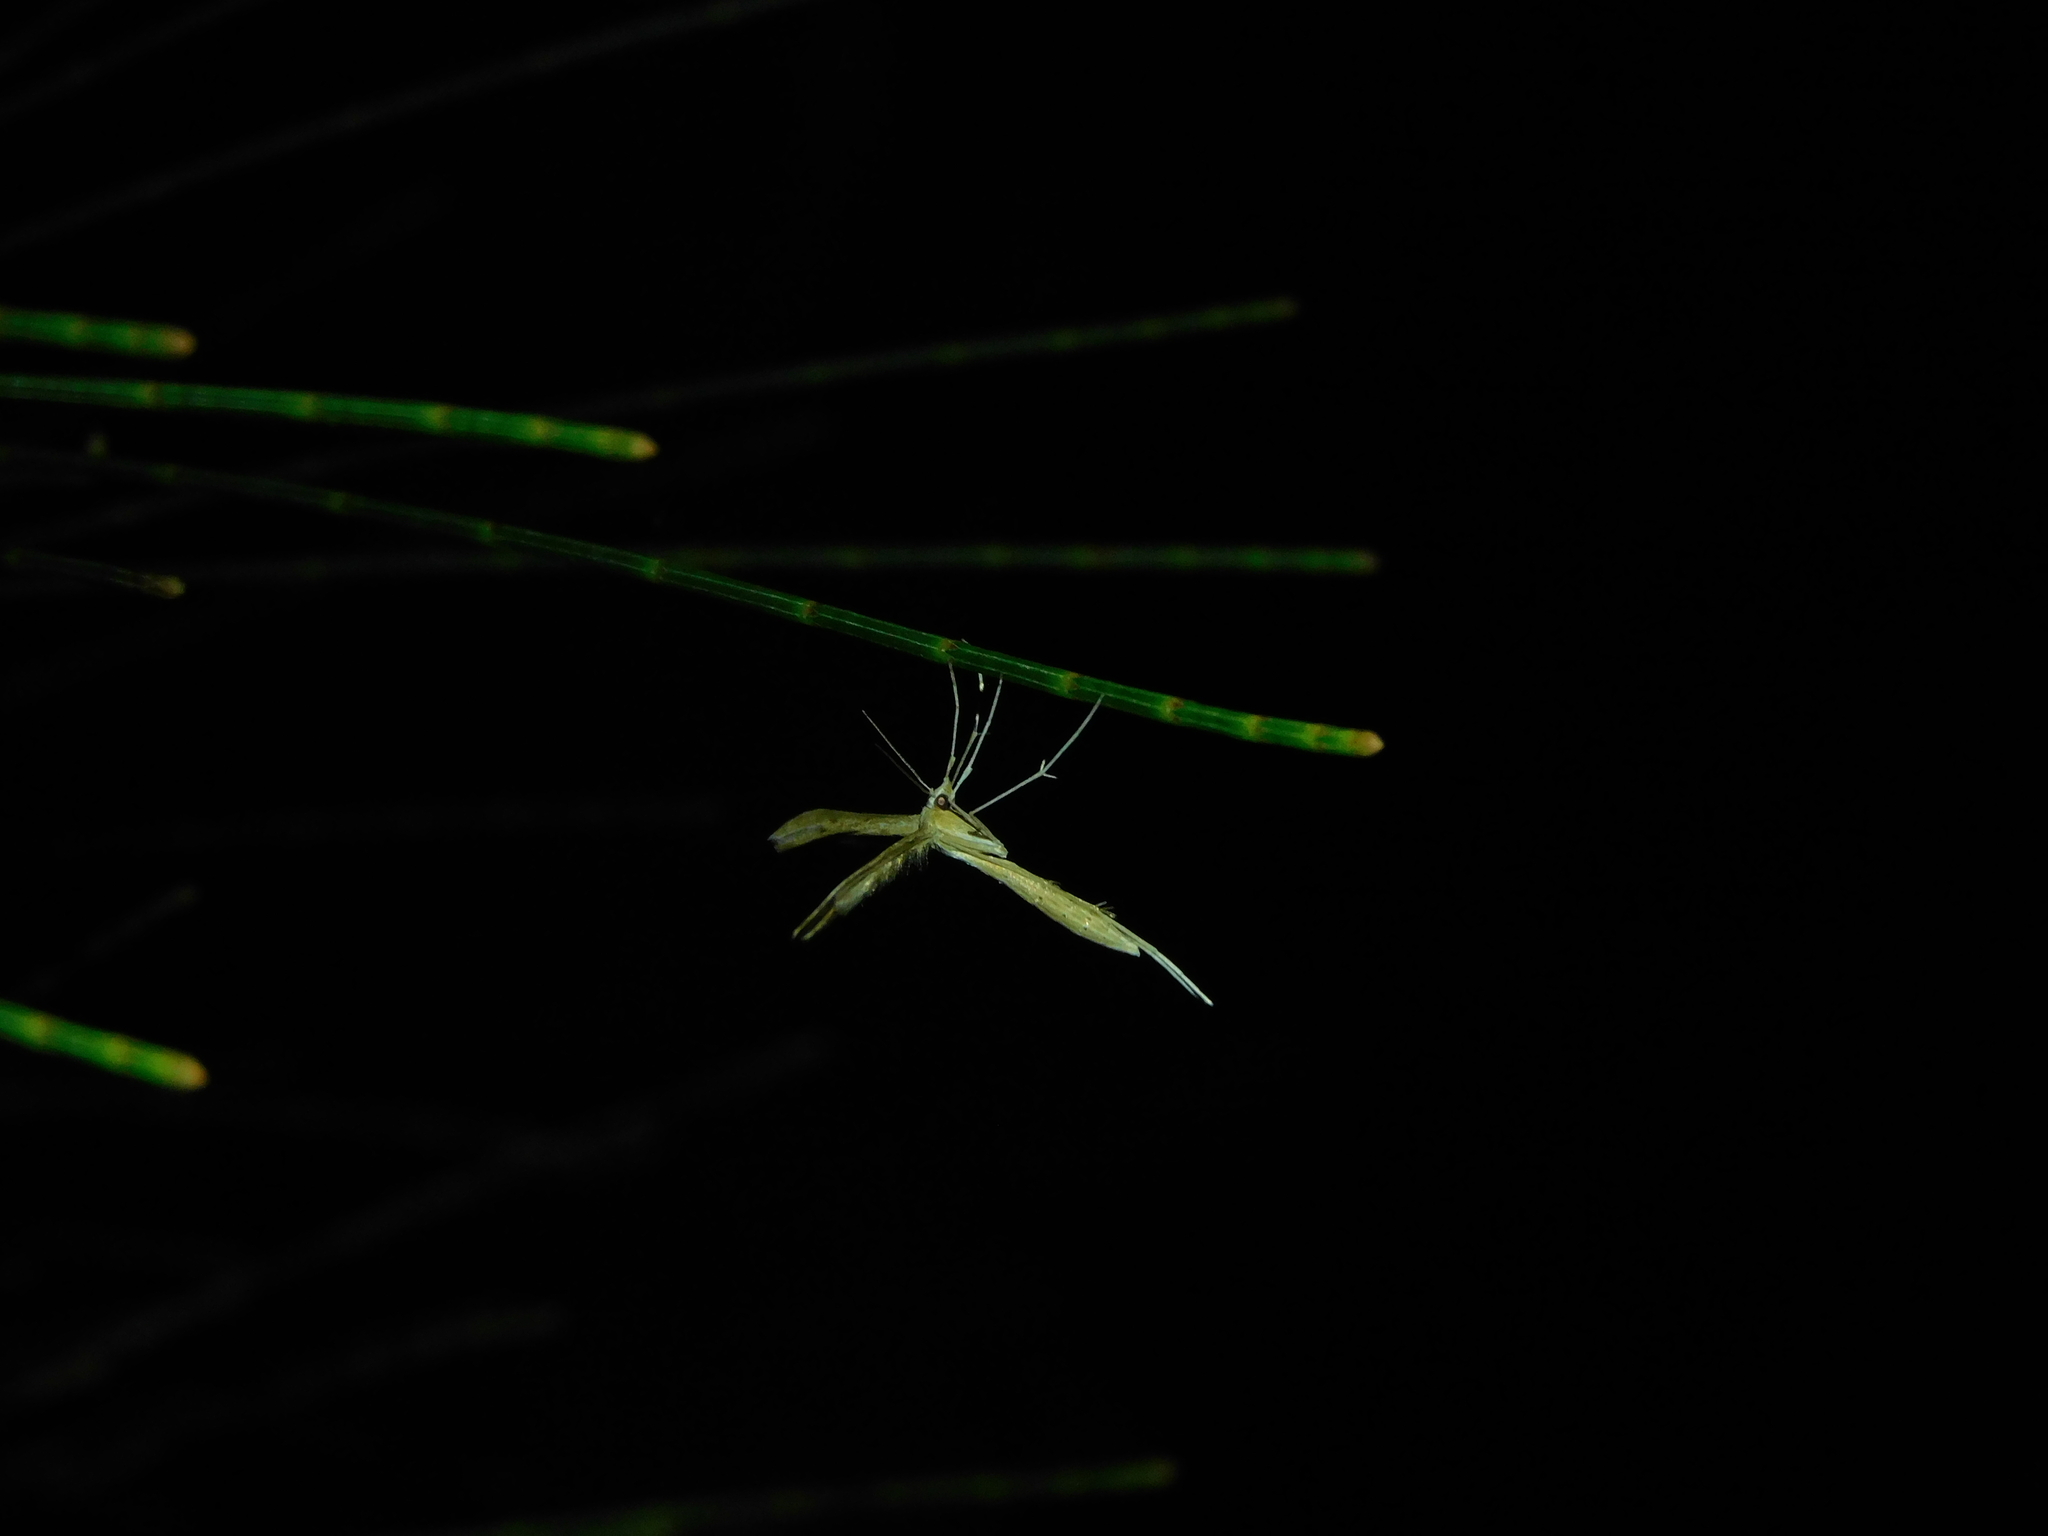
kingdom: Animalia
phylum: Arthropoda
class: Insecta
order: Lepidoptera
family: Pterophoridae
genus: Stenoptilia
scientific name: Stenoptilia zophodactylus
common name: Dowdy plume
